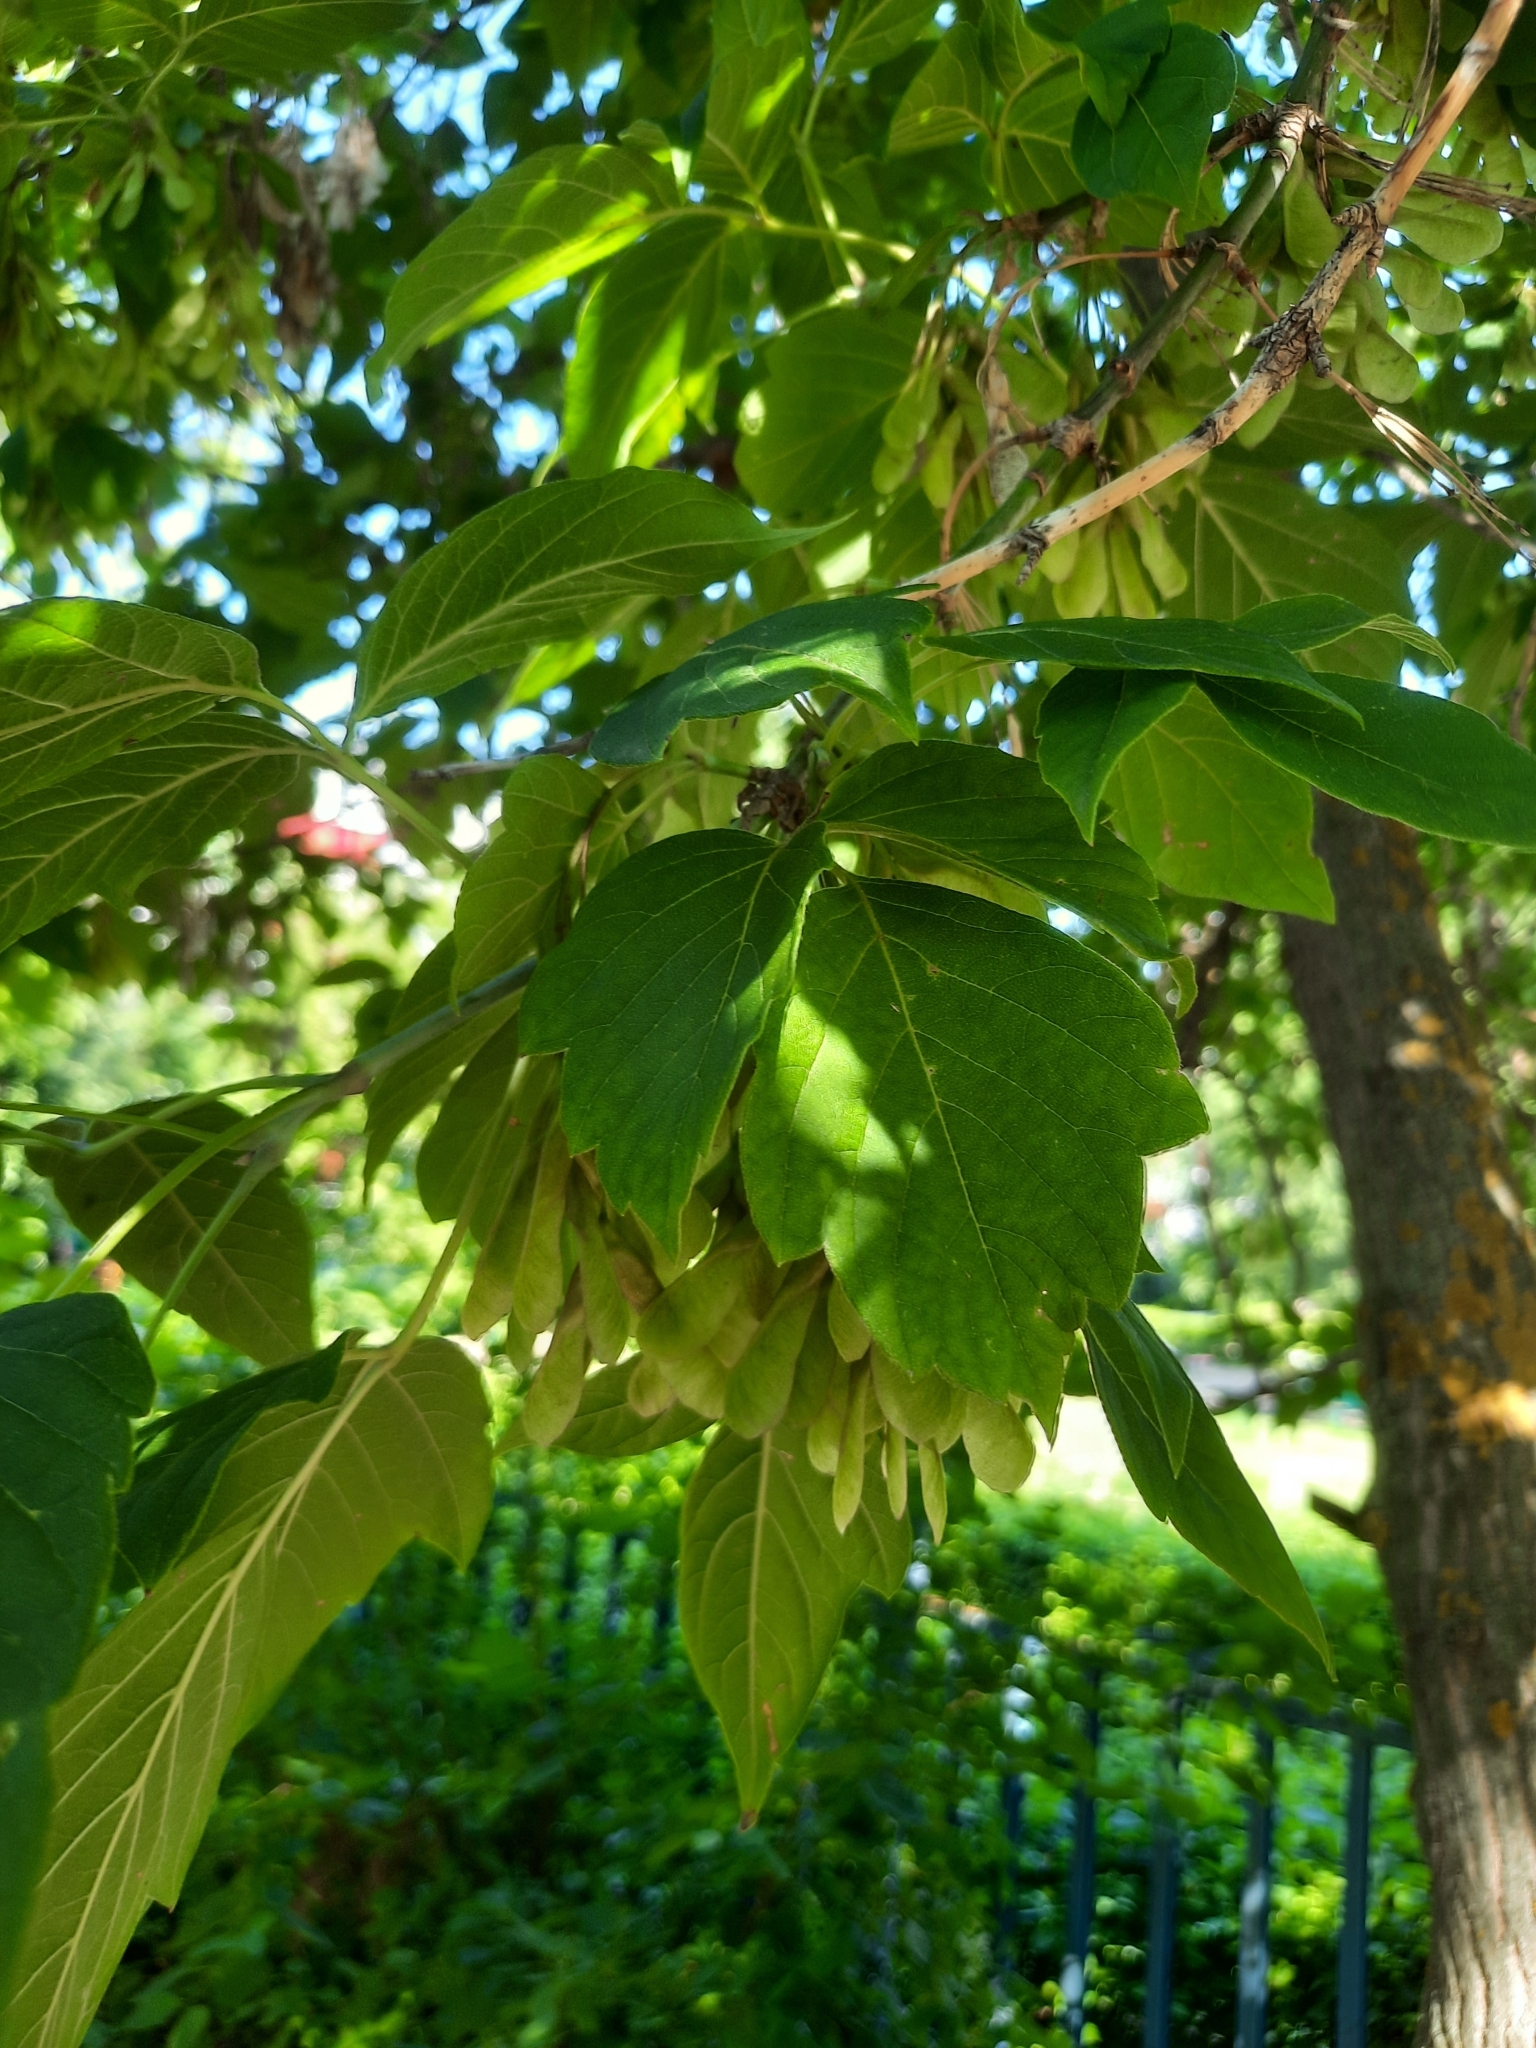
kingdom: Plantae
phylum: Tracheophyta
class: Magnoliopsida
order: Sapindales
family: Sapindaceae
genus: Acer
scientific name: Acer negundo
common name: Ashleaf maple
